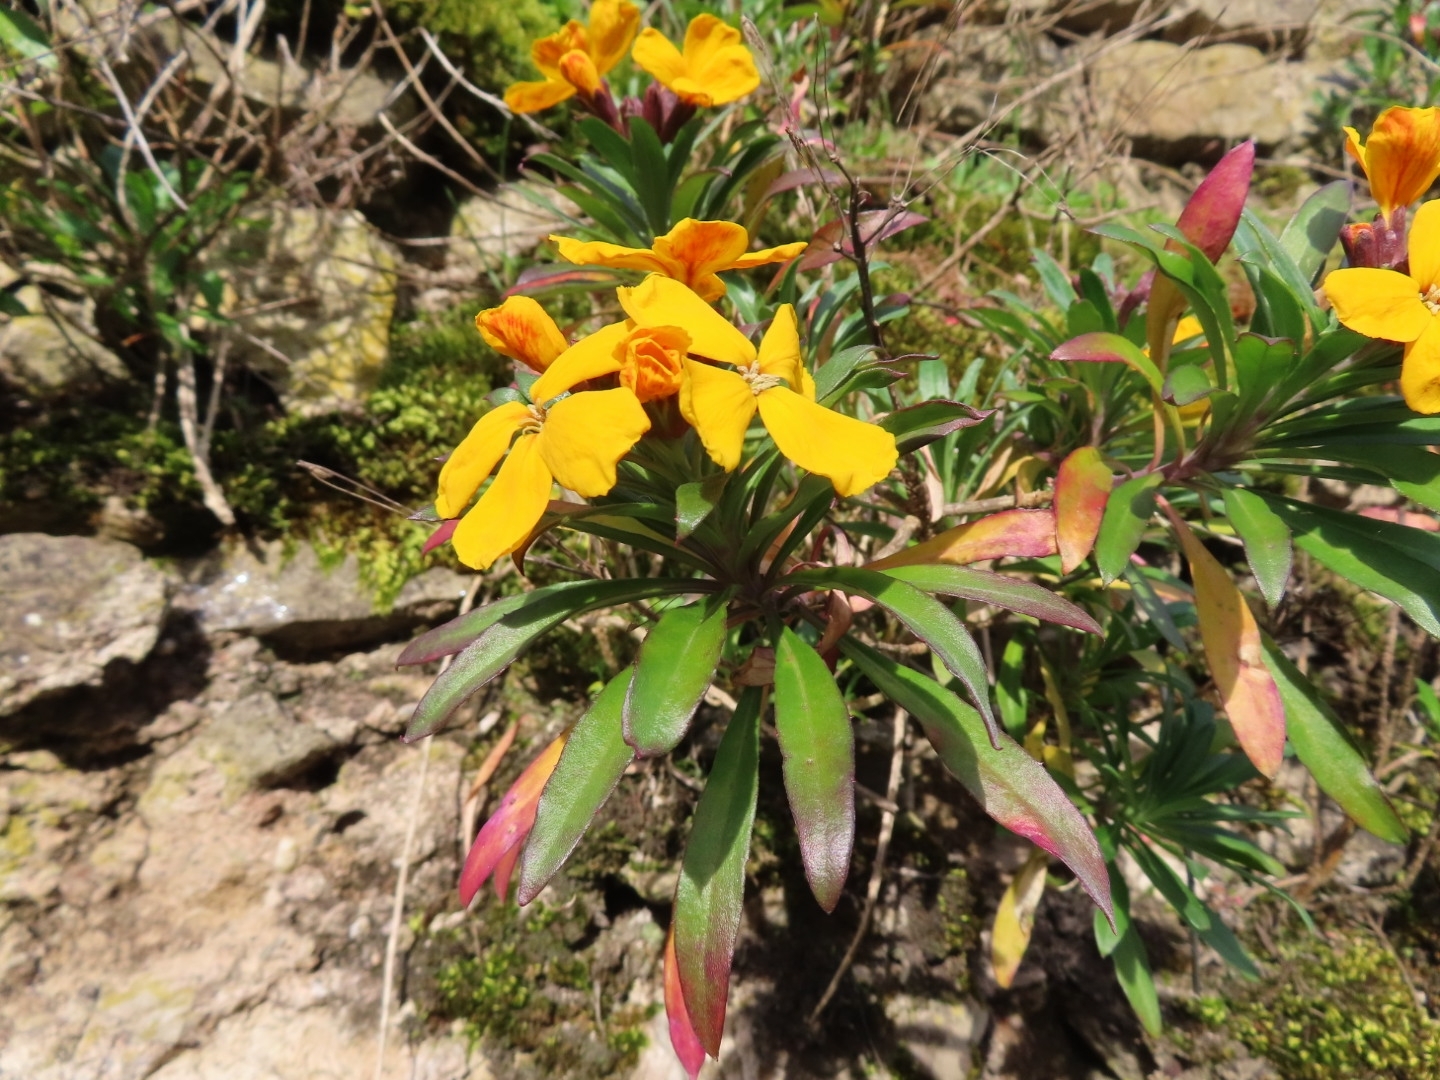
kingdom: Plantae
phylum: Tracheophyta
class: Magnoliopsida
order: Brassicales
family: Brassicaceae
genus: Erysimum
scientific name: Erysimum cheiri
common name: Wallflower
